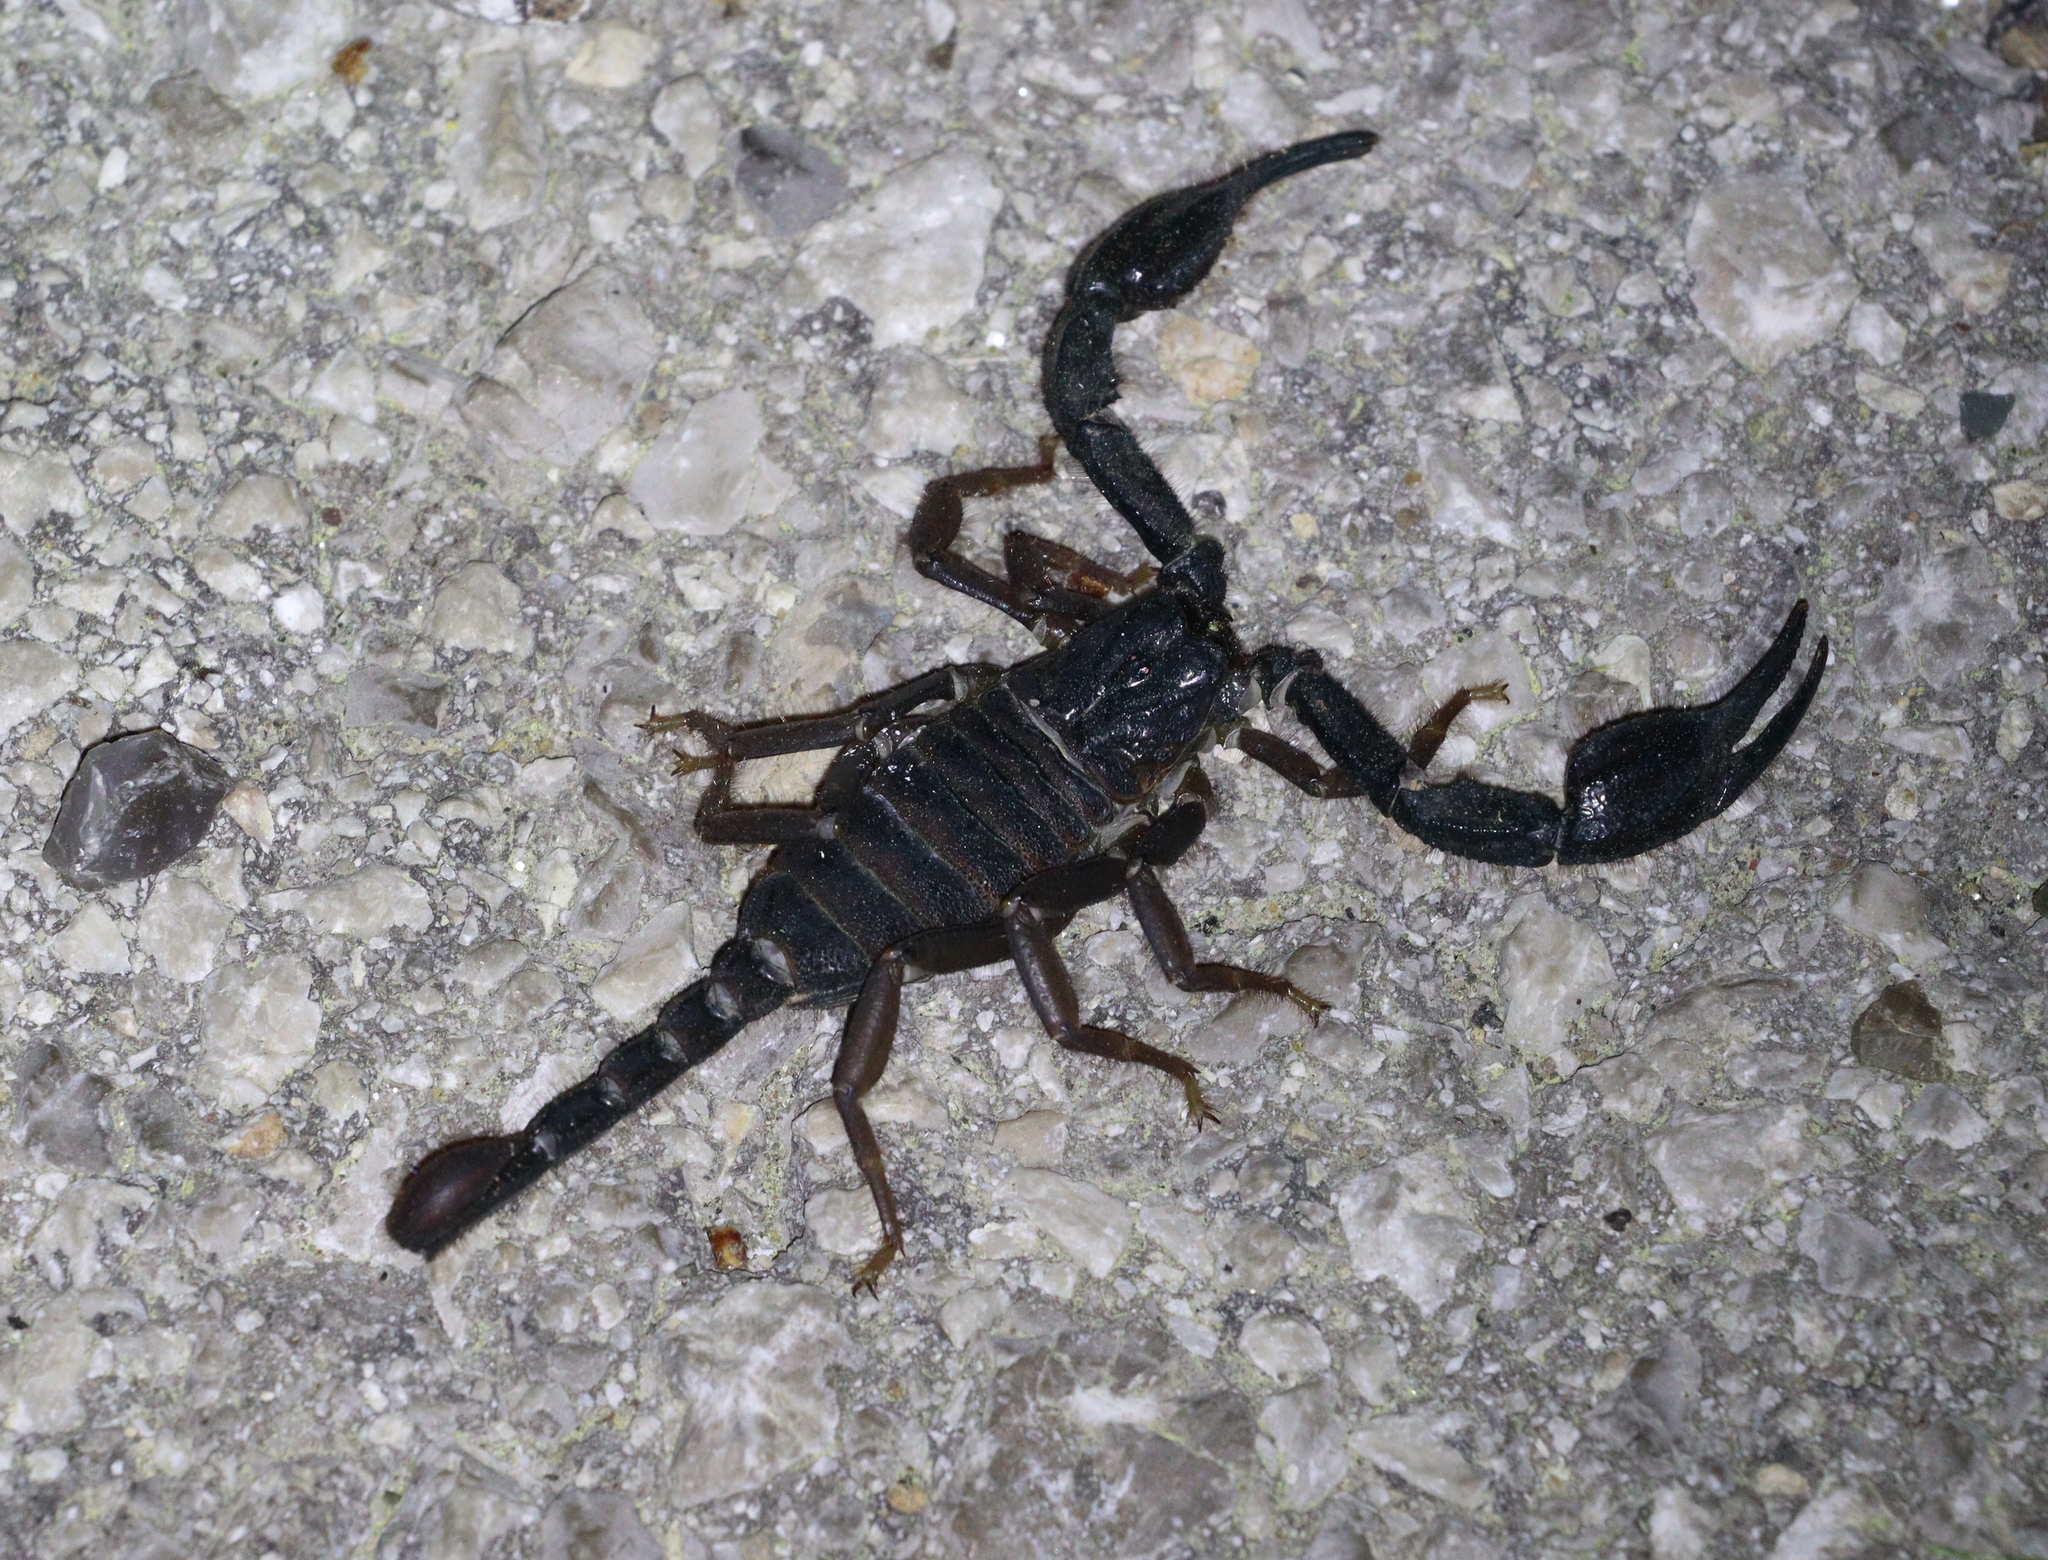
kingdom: Animalia
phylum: Arthropoda
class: Arachnida
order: Scorpiones
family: Iuridae
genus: Anatoliurus
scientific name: Anatoliurus kraepelini
